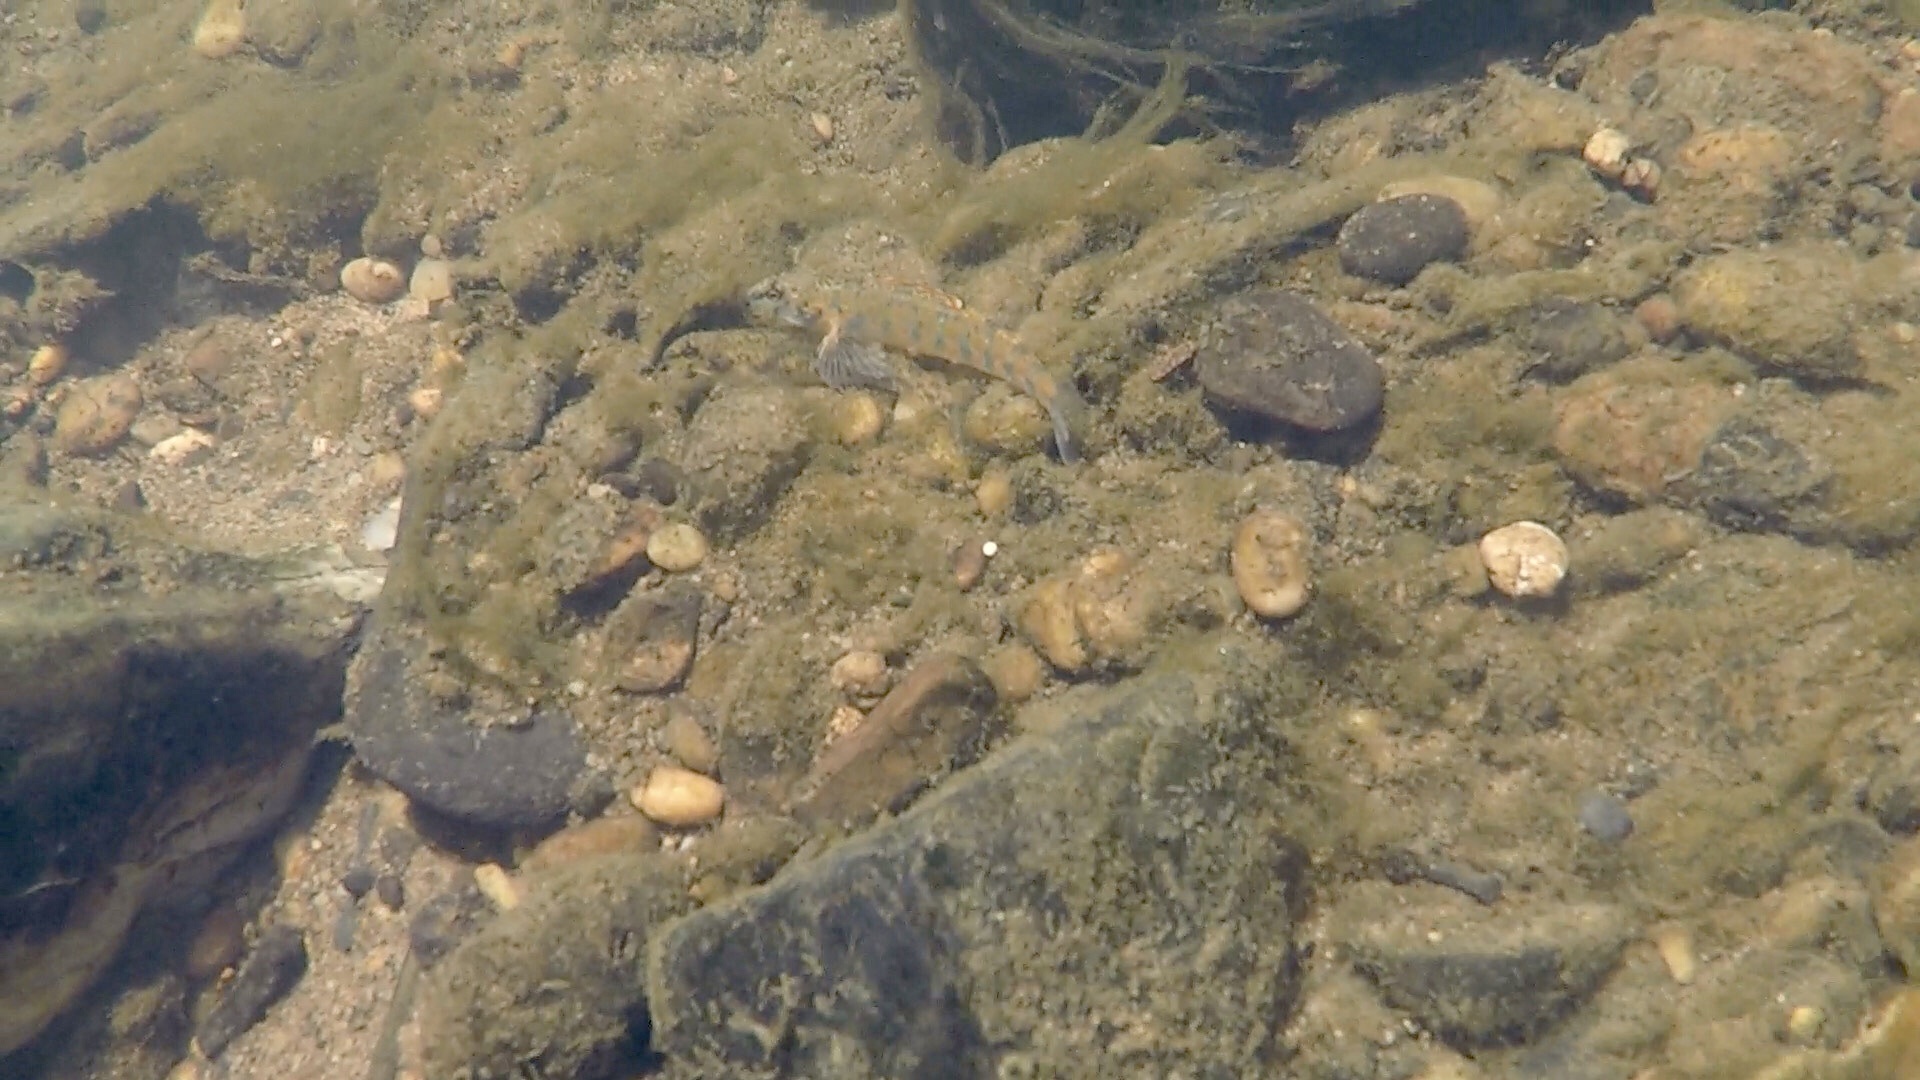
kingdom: Animalia
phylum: Chordata
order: Perciformes
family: Percidae
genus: Etheostoma
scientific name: Etheostoma stigmaeum
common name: Speckled darter
